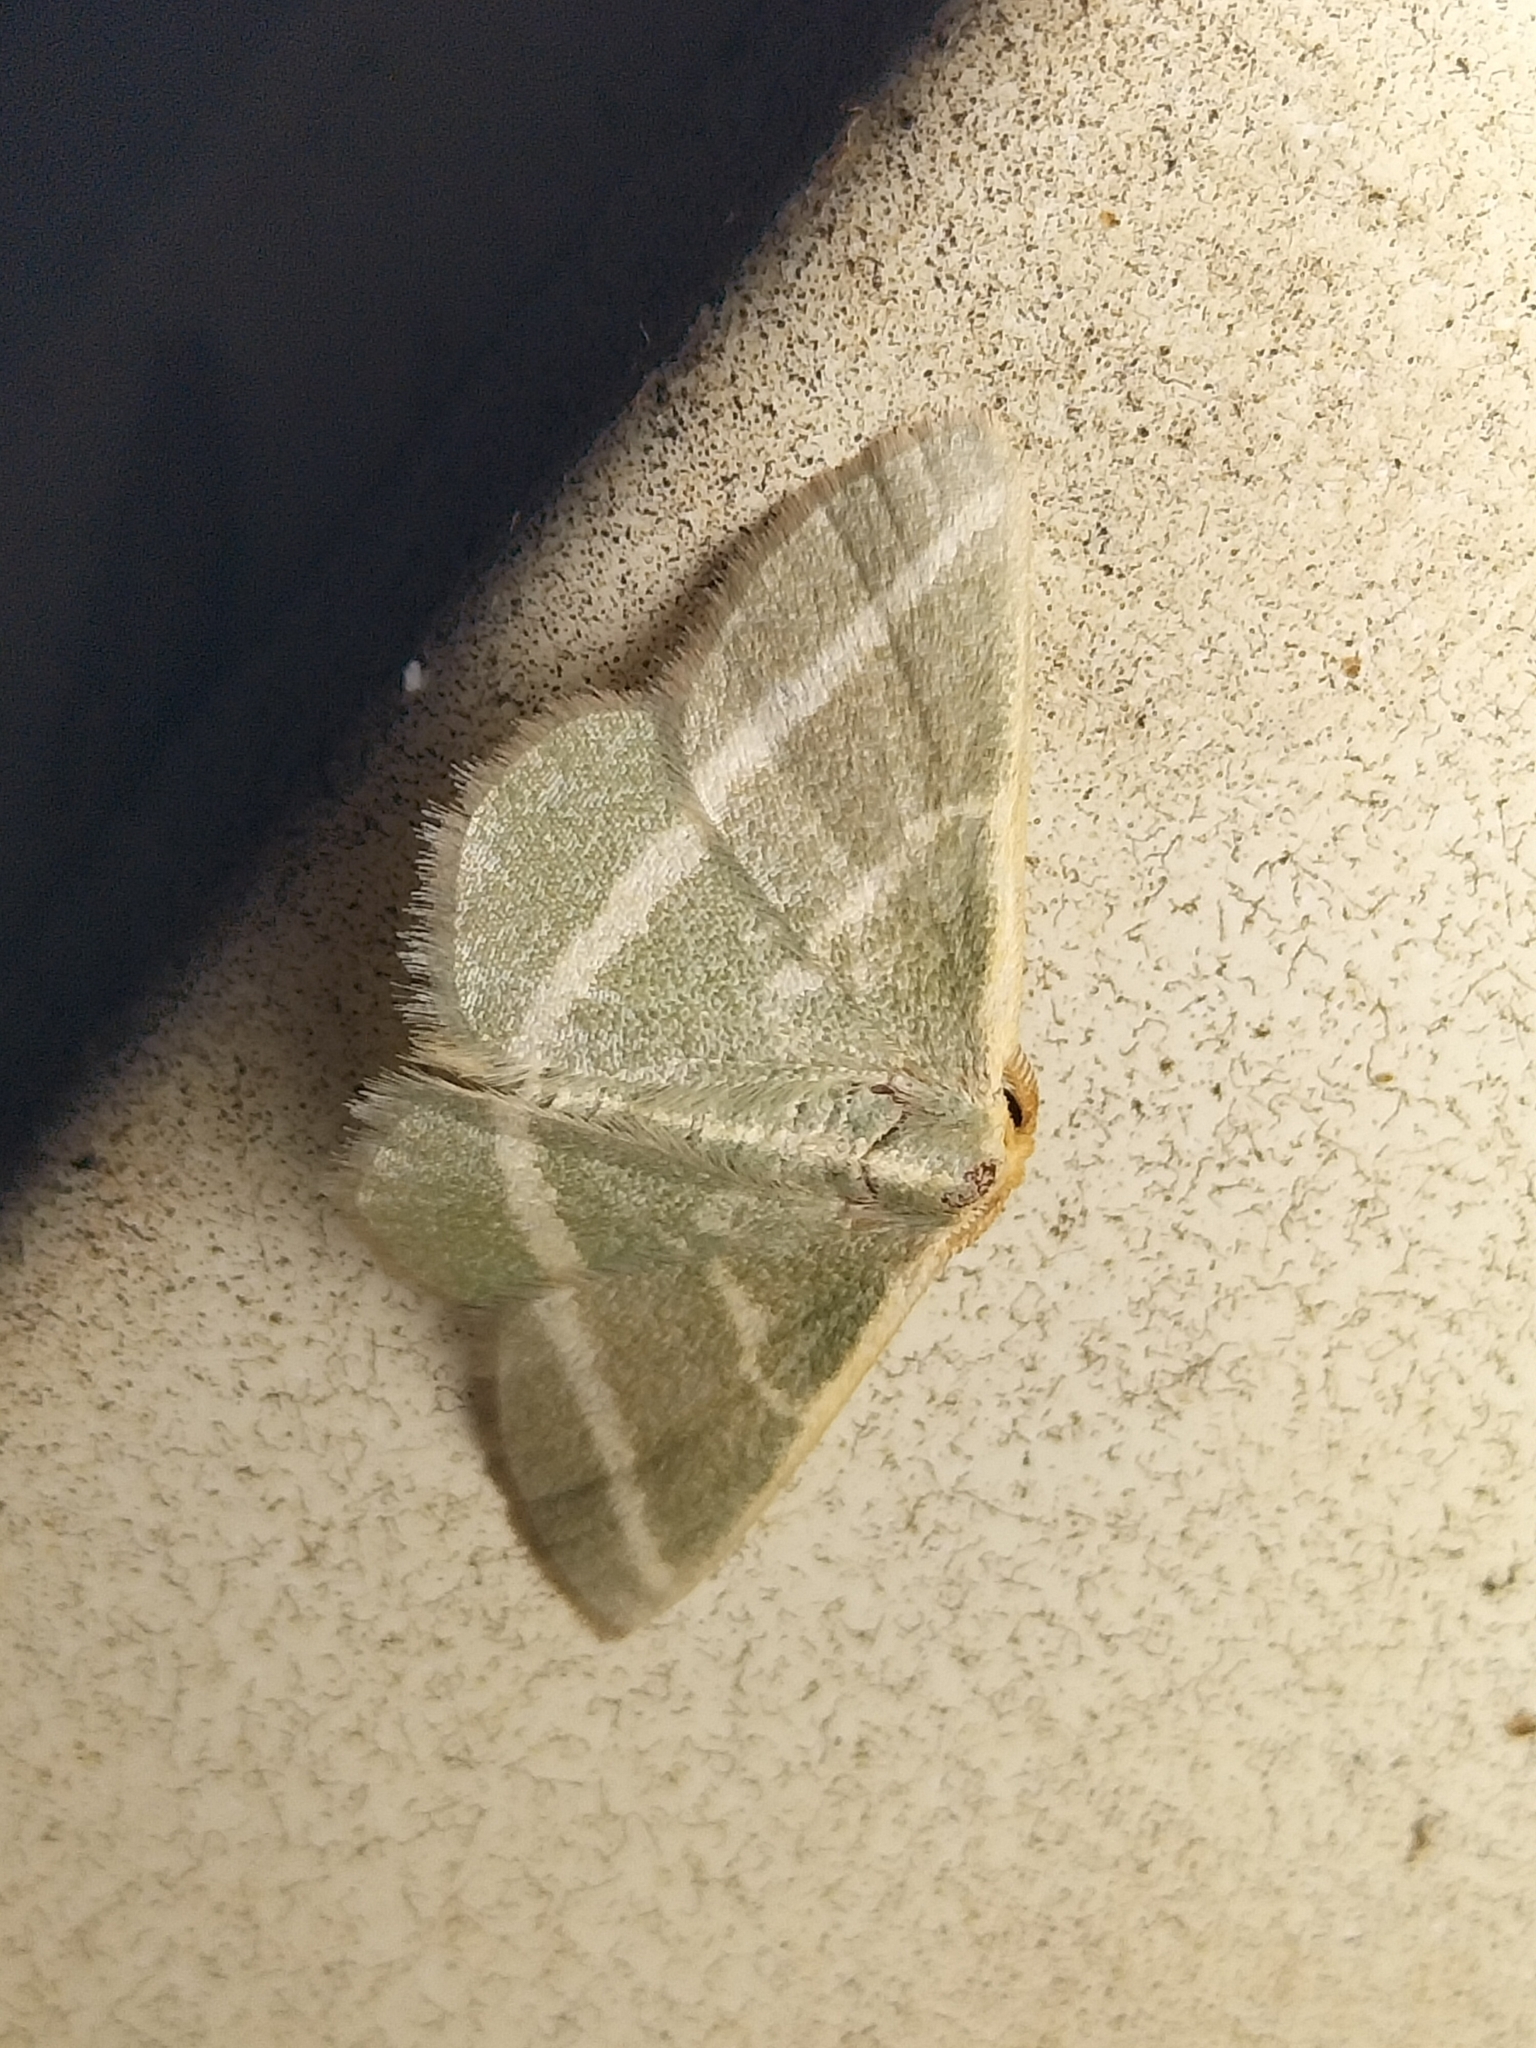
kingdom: Animalia
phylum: Arthropoda
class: Insecta
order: Lepidoptera
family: Geometridae
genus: Mixocera
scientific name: Mixocera latilineata
